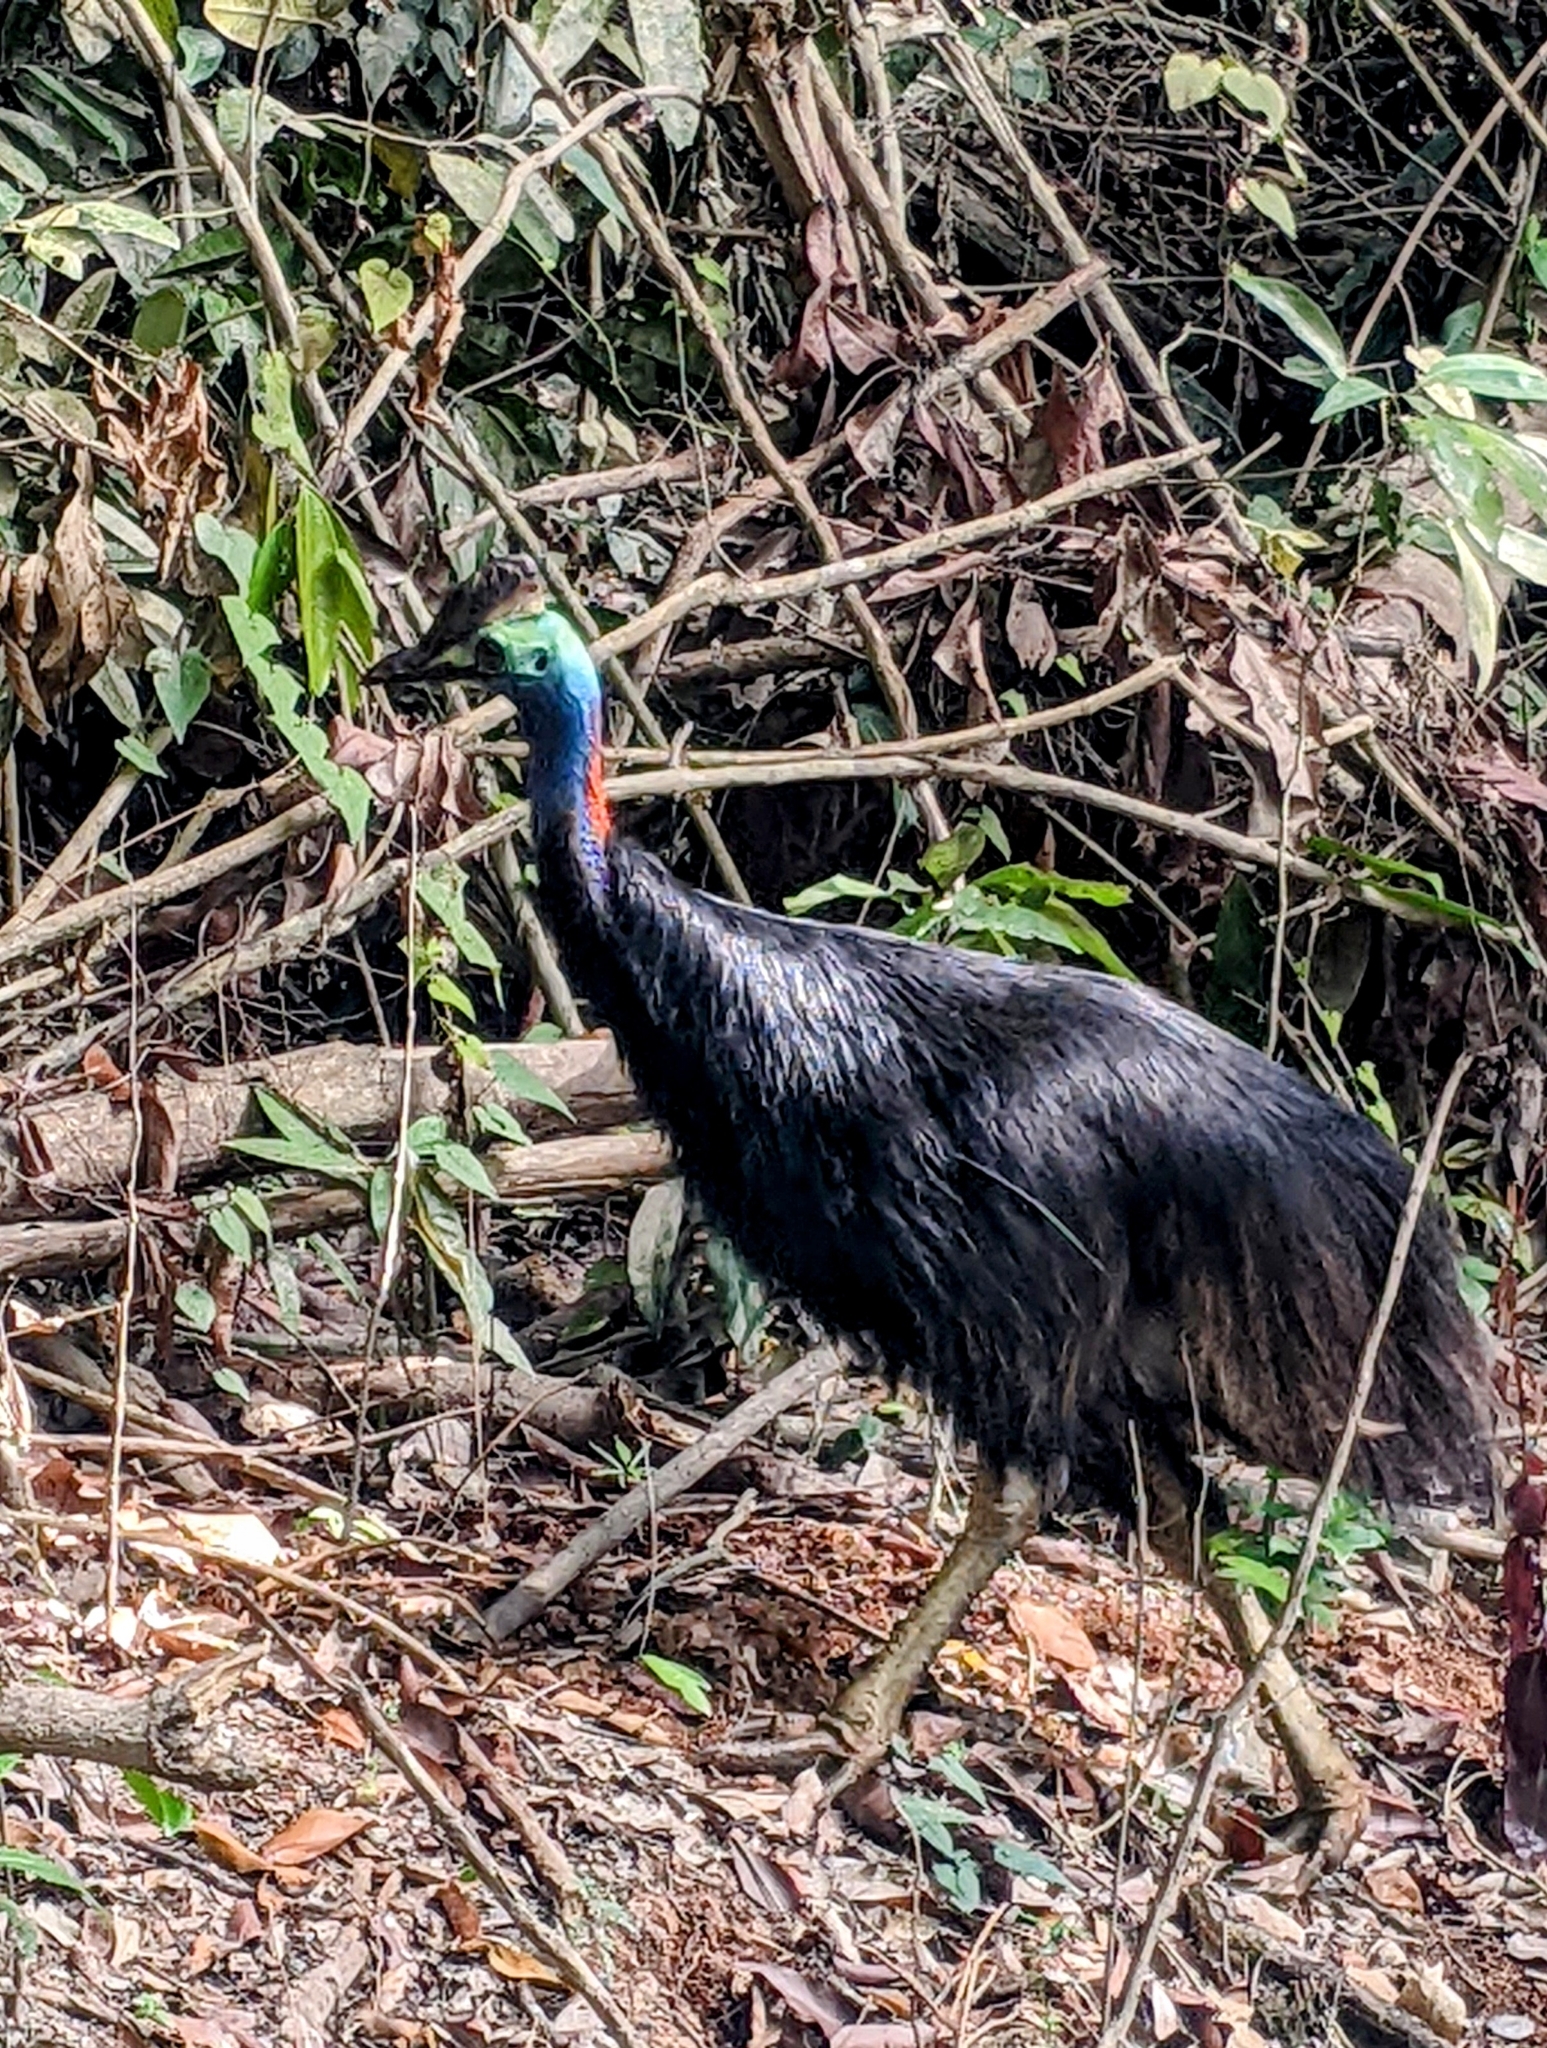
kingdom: Animalia
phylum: Chordata
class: Aves
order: Casuariiformes
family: Casuariidae
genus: Casuarius
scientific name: Casuarius casuarius
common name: Southern cassowary
